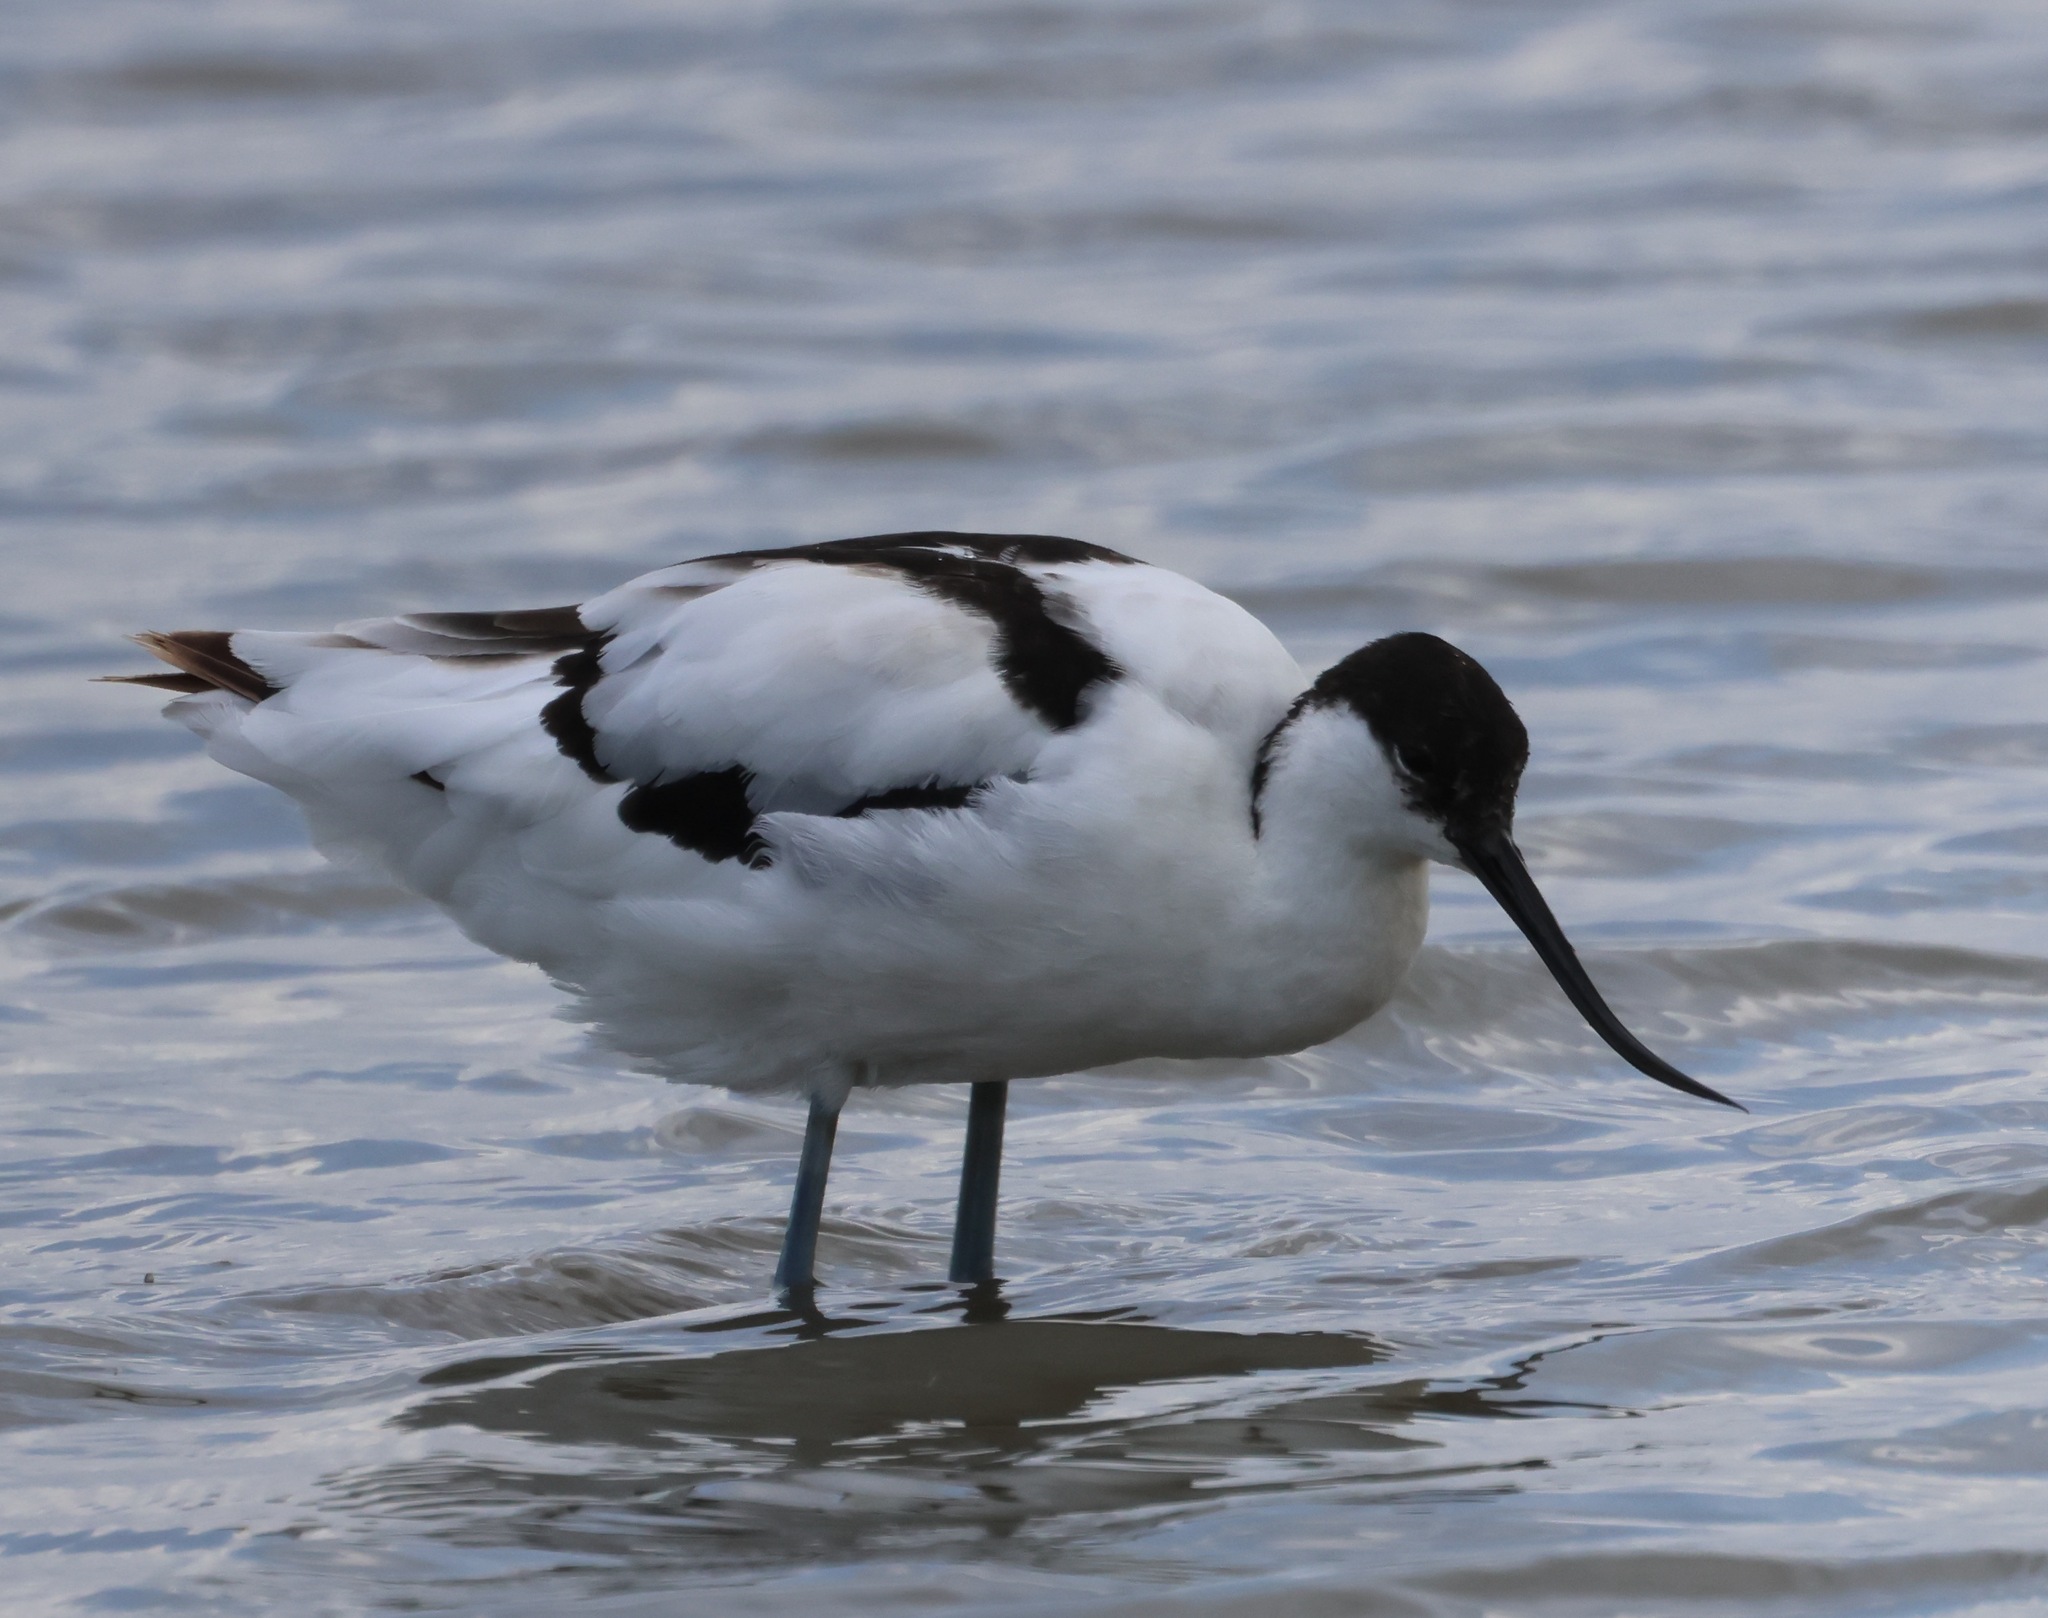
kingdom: Animalia
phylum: Chordata
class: Aves
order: Charadriiformes
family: Recurvirostridae
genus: Recurvirostra
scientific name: Recurvirostra avosetta
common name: Pied avocet
